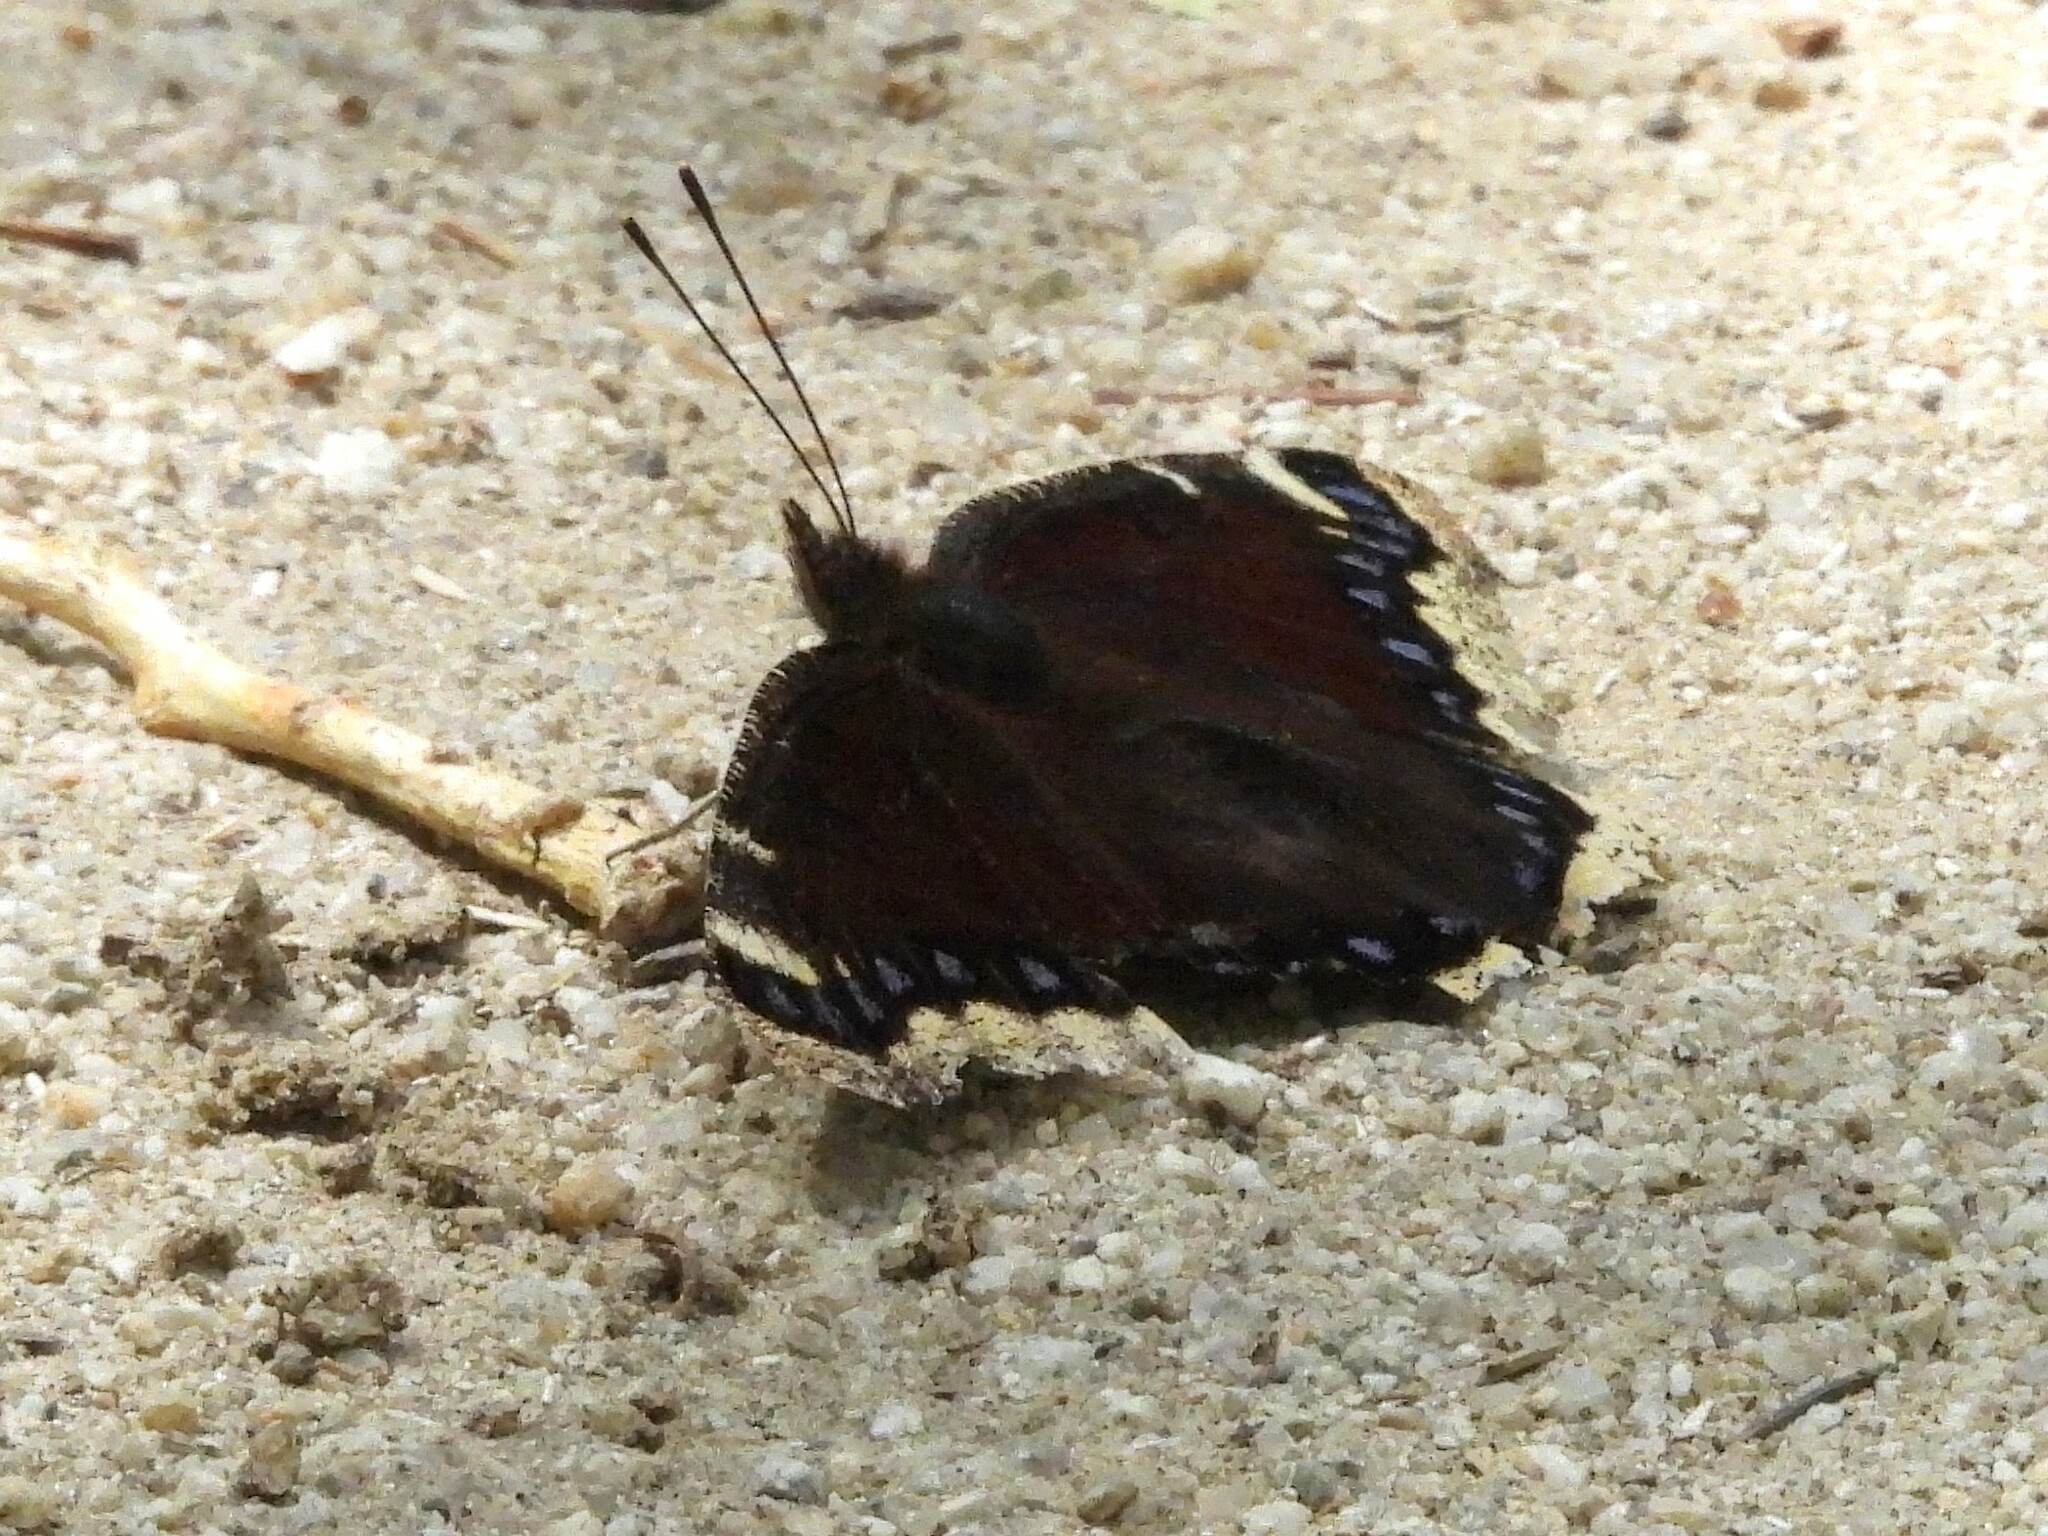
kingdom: Animalia
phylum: Arthropoda
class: Insecta
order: Lepidoptera
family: Nymphalidae
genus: Nymphalis
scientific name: Nymphalis antiopa
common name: Camberwell beauty
